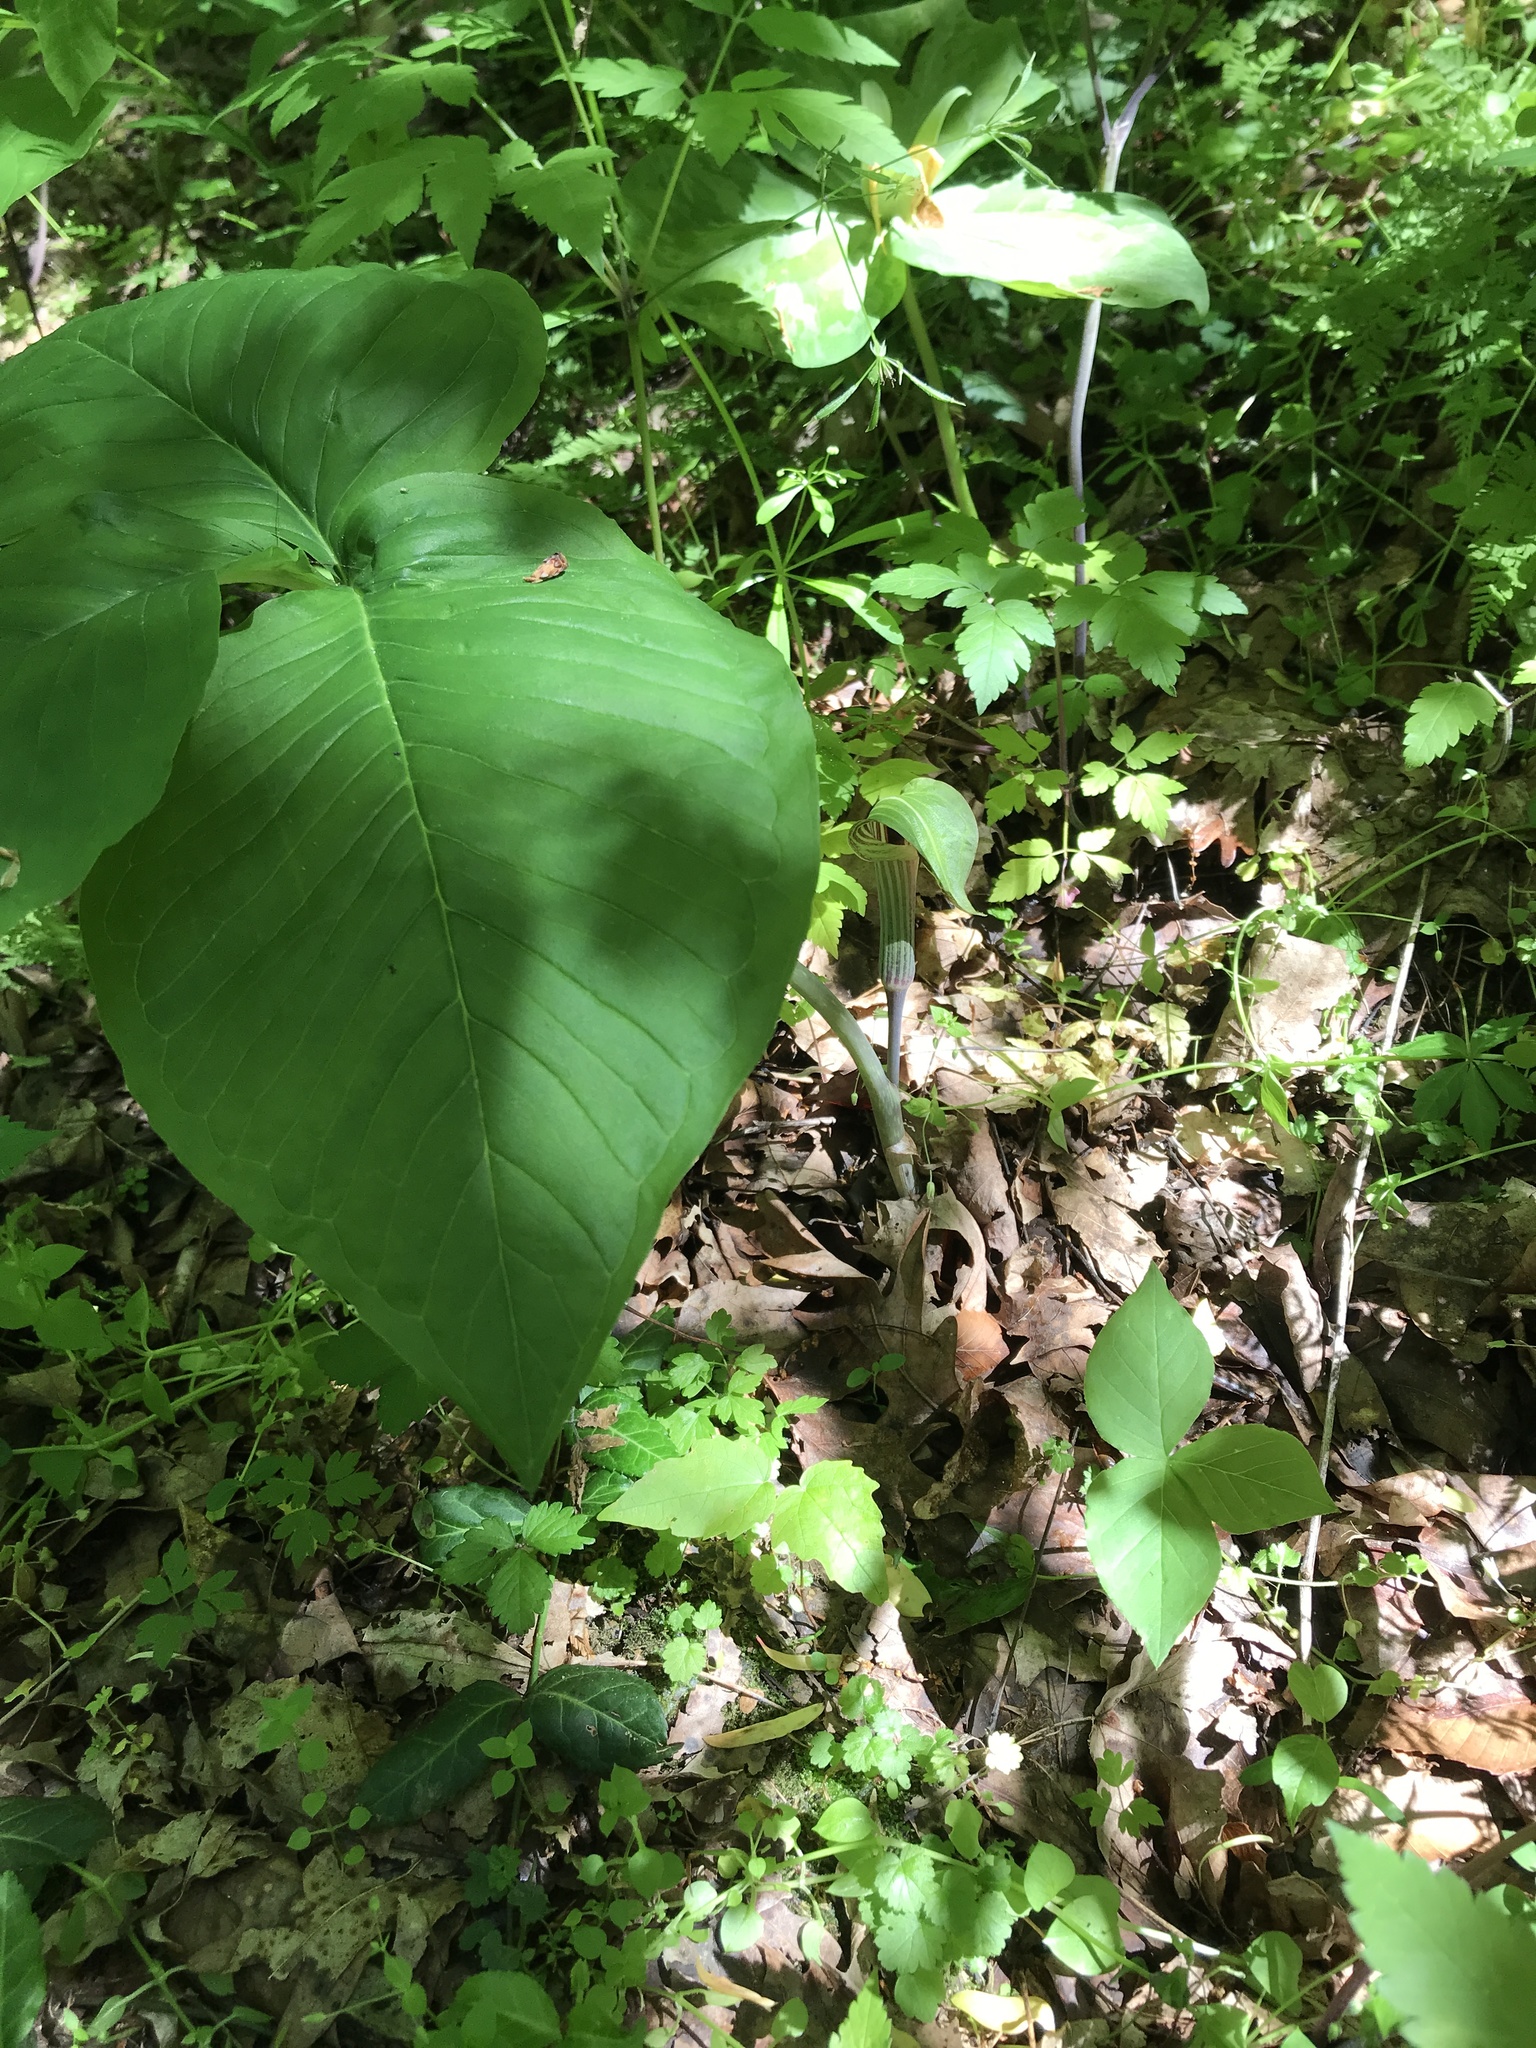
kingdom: Plantae
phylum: Tracheophyta
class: Liliopsida
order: Alismatales
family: Araceae
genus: Arisaema
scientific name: Arisaema triphyllum
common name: Jack-in-the-pulpit
